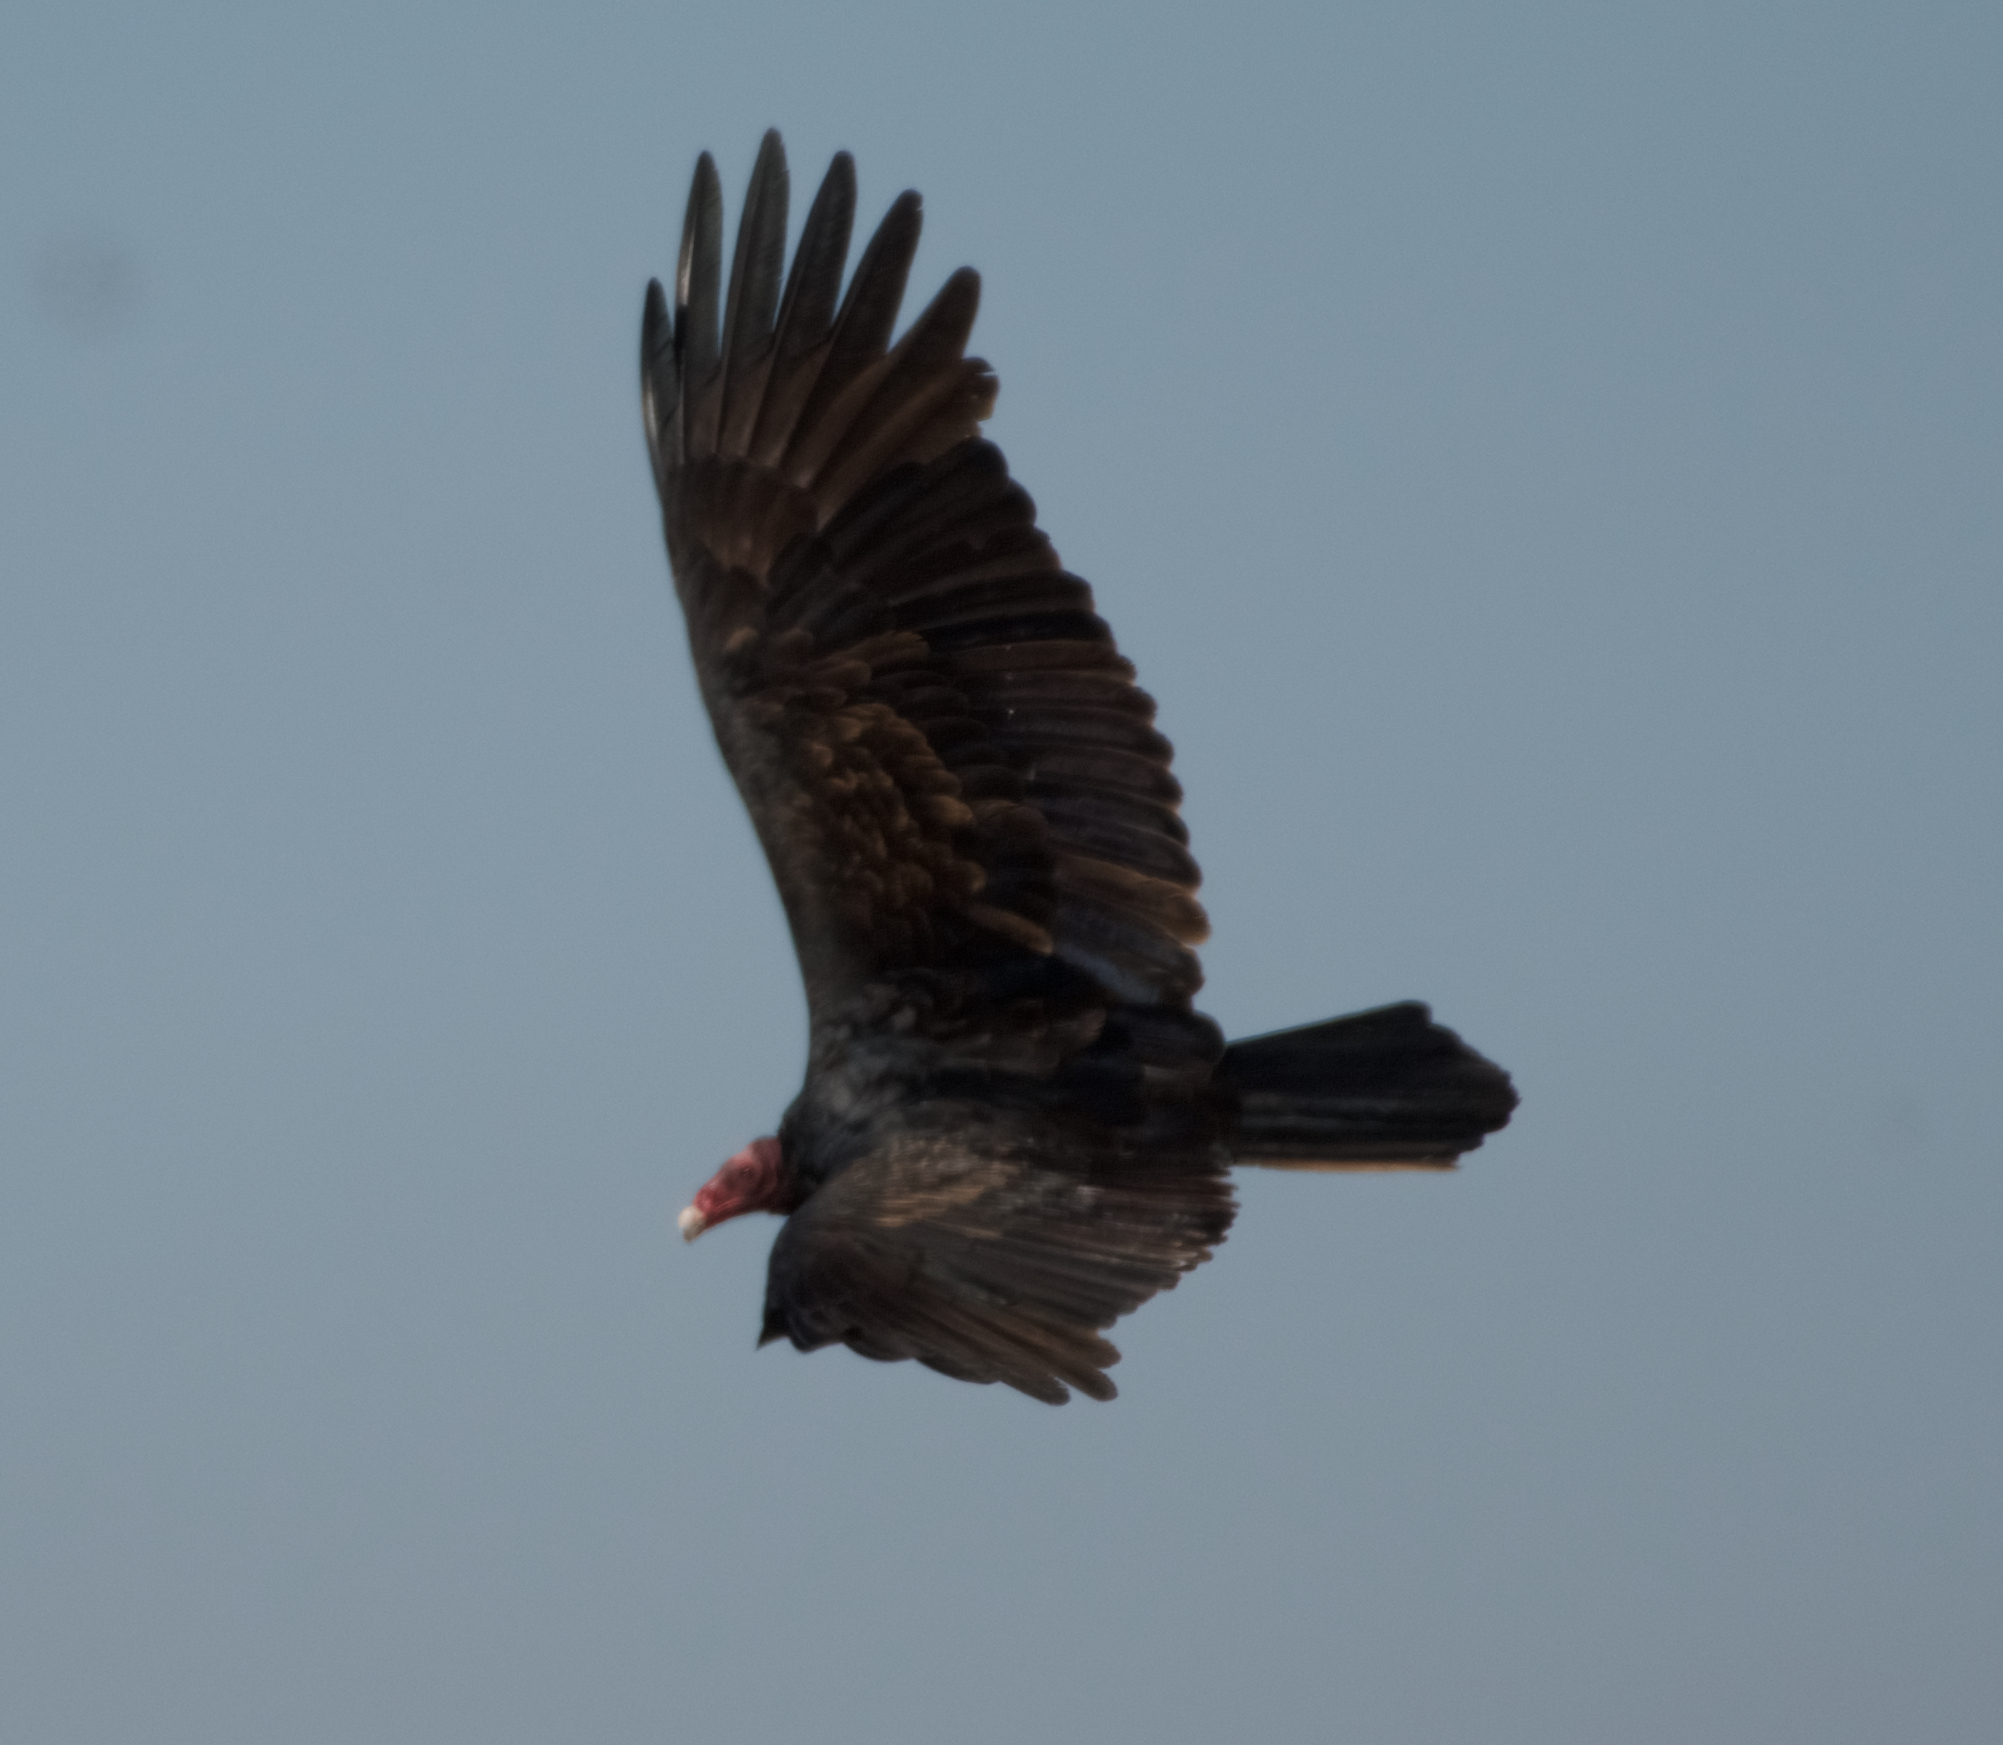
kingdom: Animalia
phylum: Chordata
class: Aves
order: Accipitriformes
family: Cathartidae
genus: Cathartes
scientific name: Cathartes aura
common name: Turkey vulture
